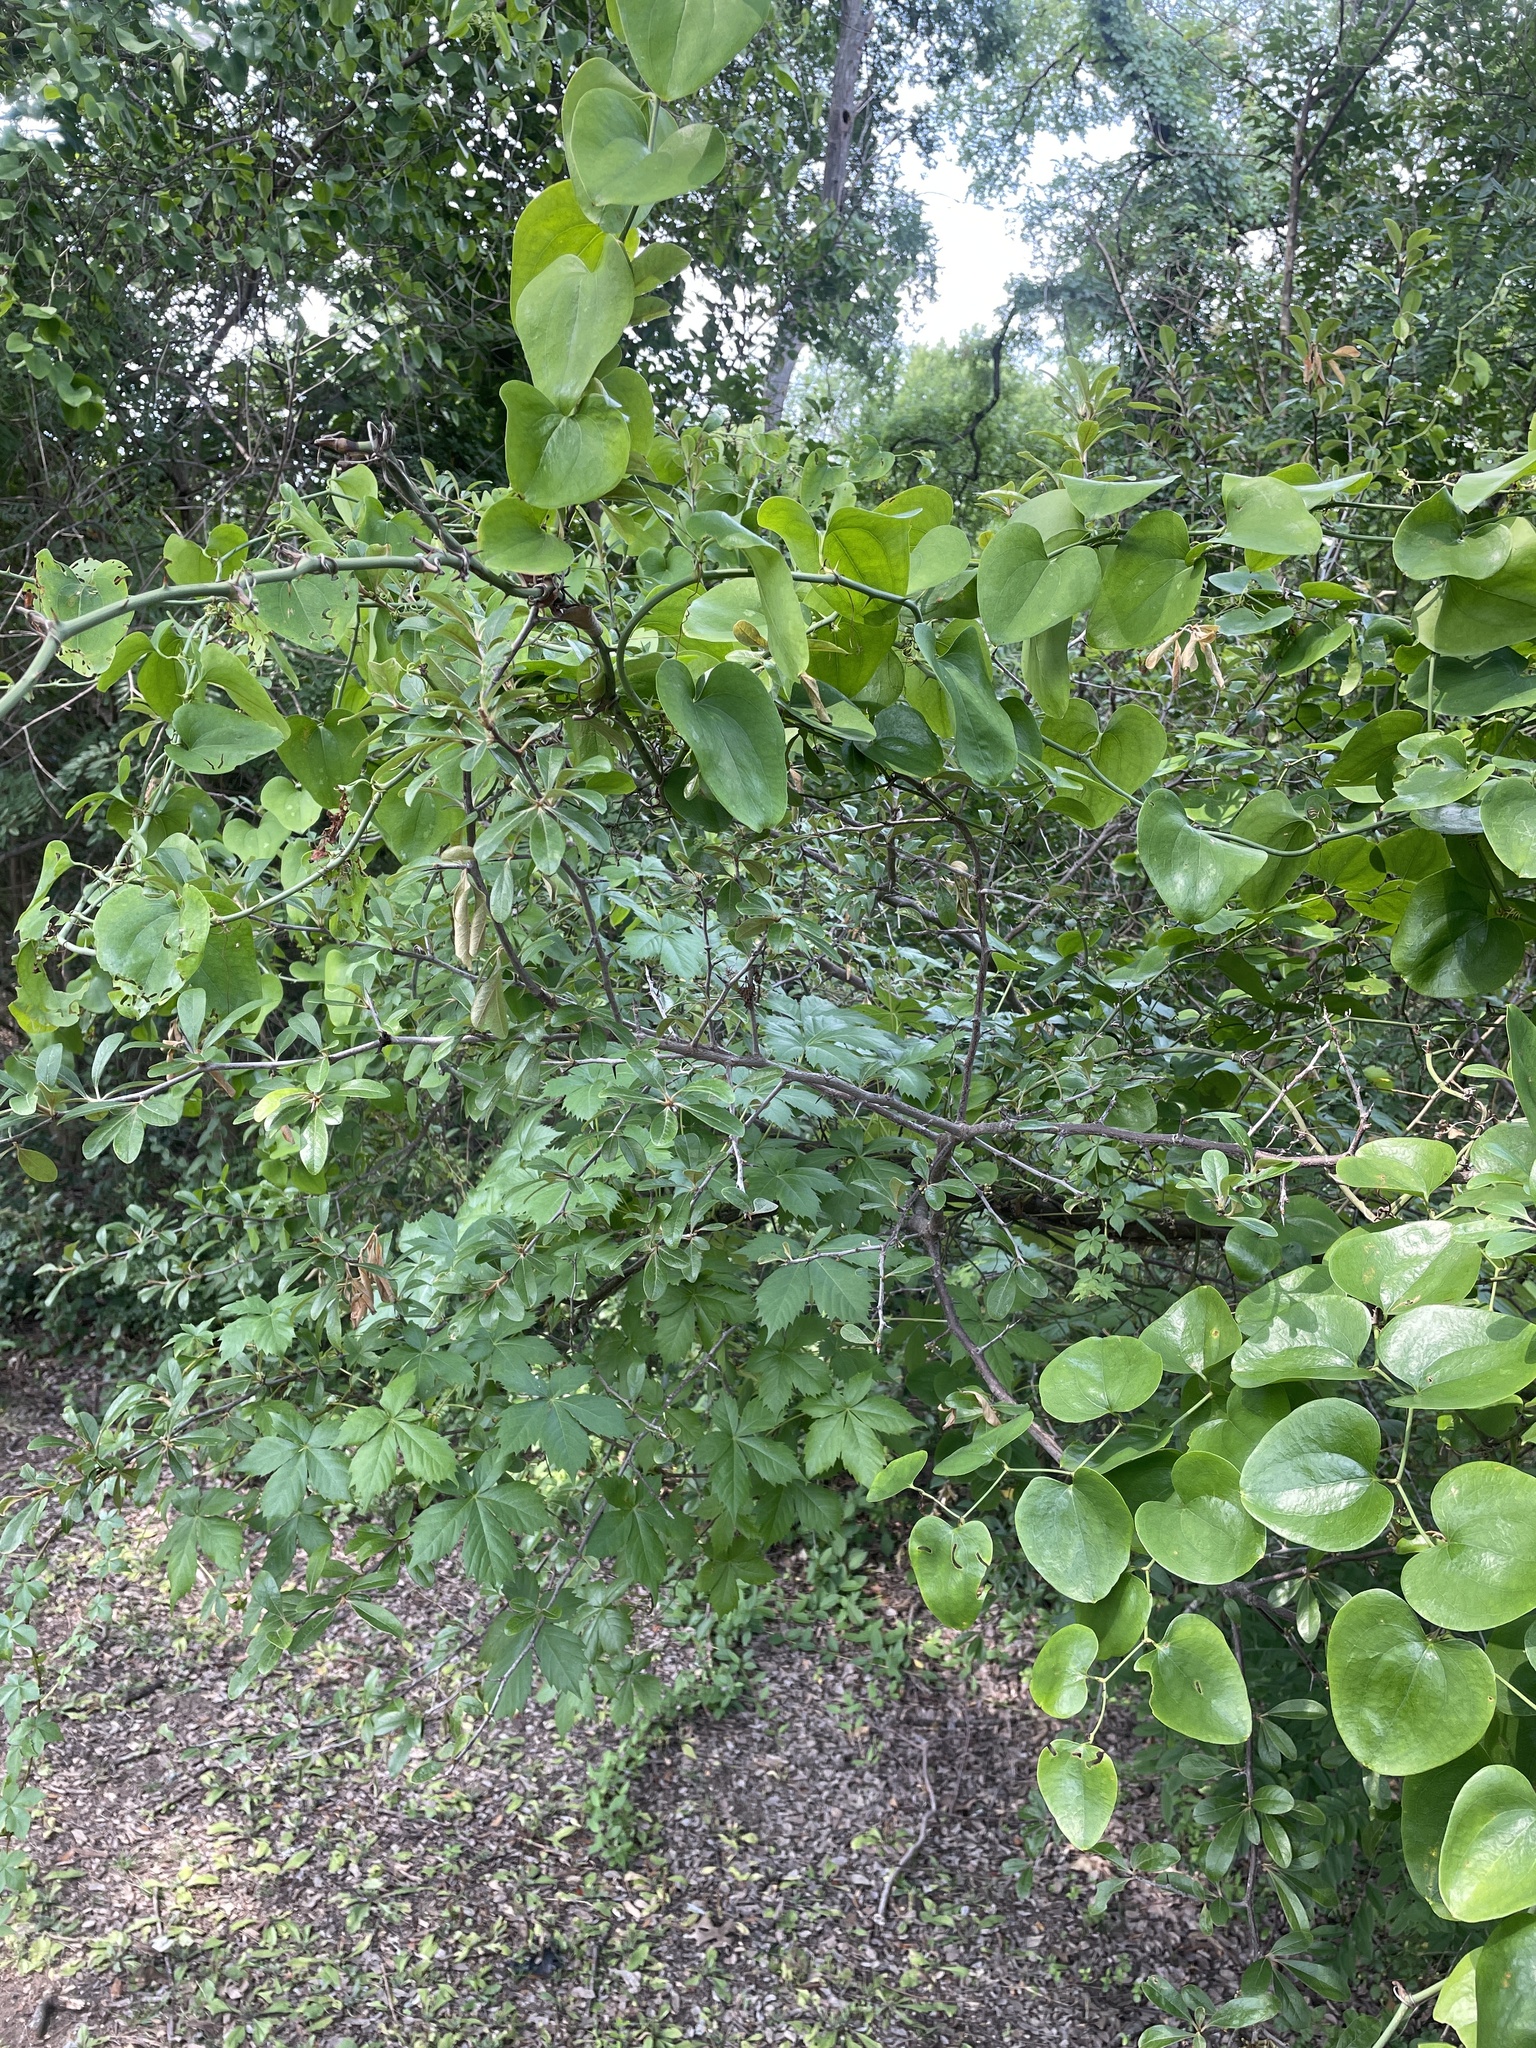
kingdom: Plantae
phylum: Tracheophyta
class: Magnoliopsida
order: Ericales
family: Sapotaceae
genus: Sideroxylon
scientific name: Sideroxylon lanuginosum
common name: Chittamwood
